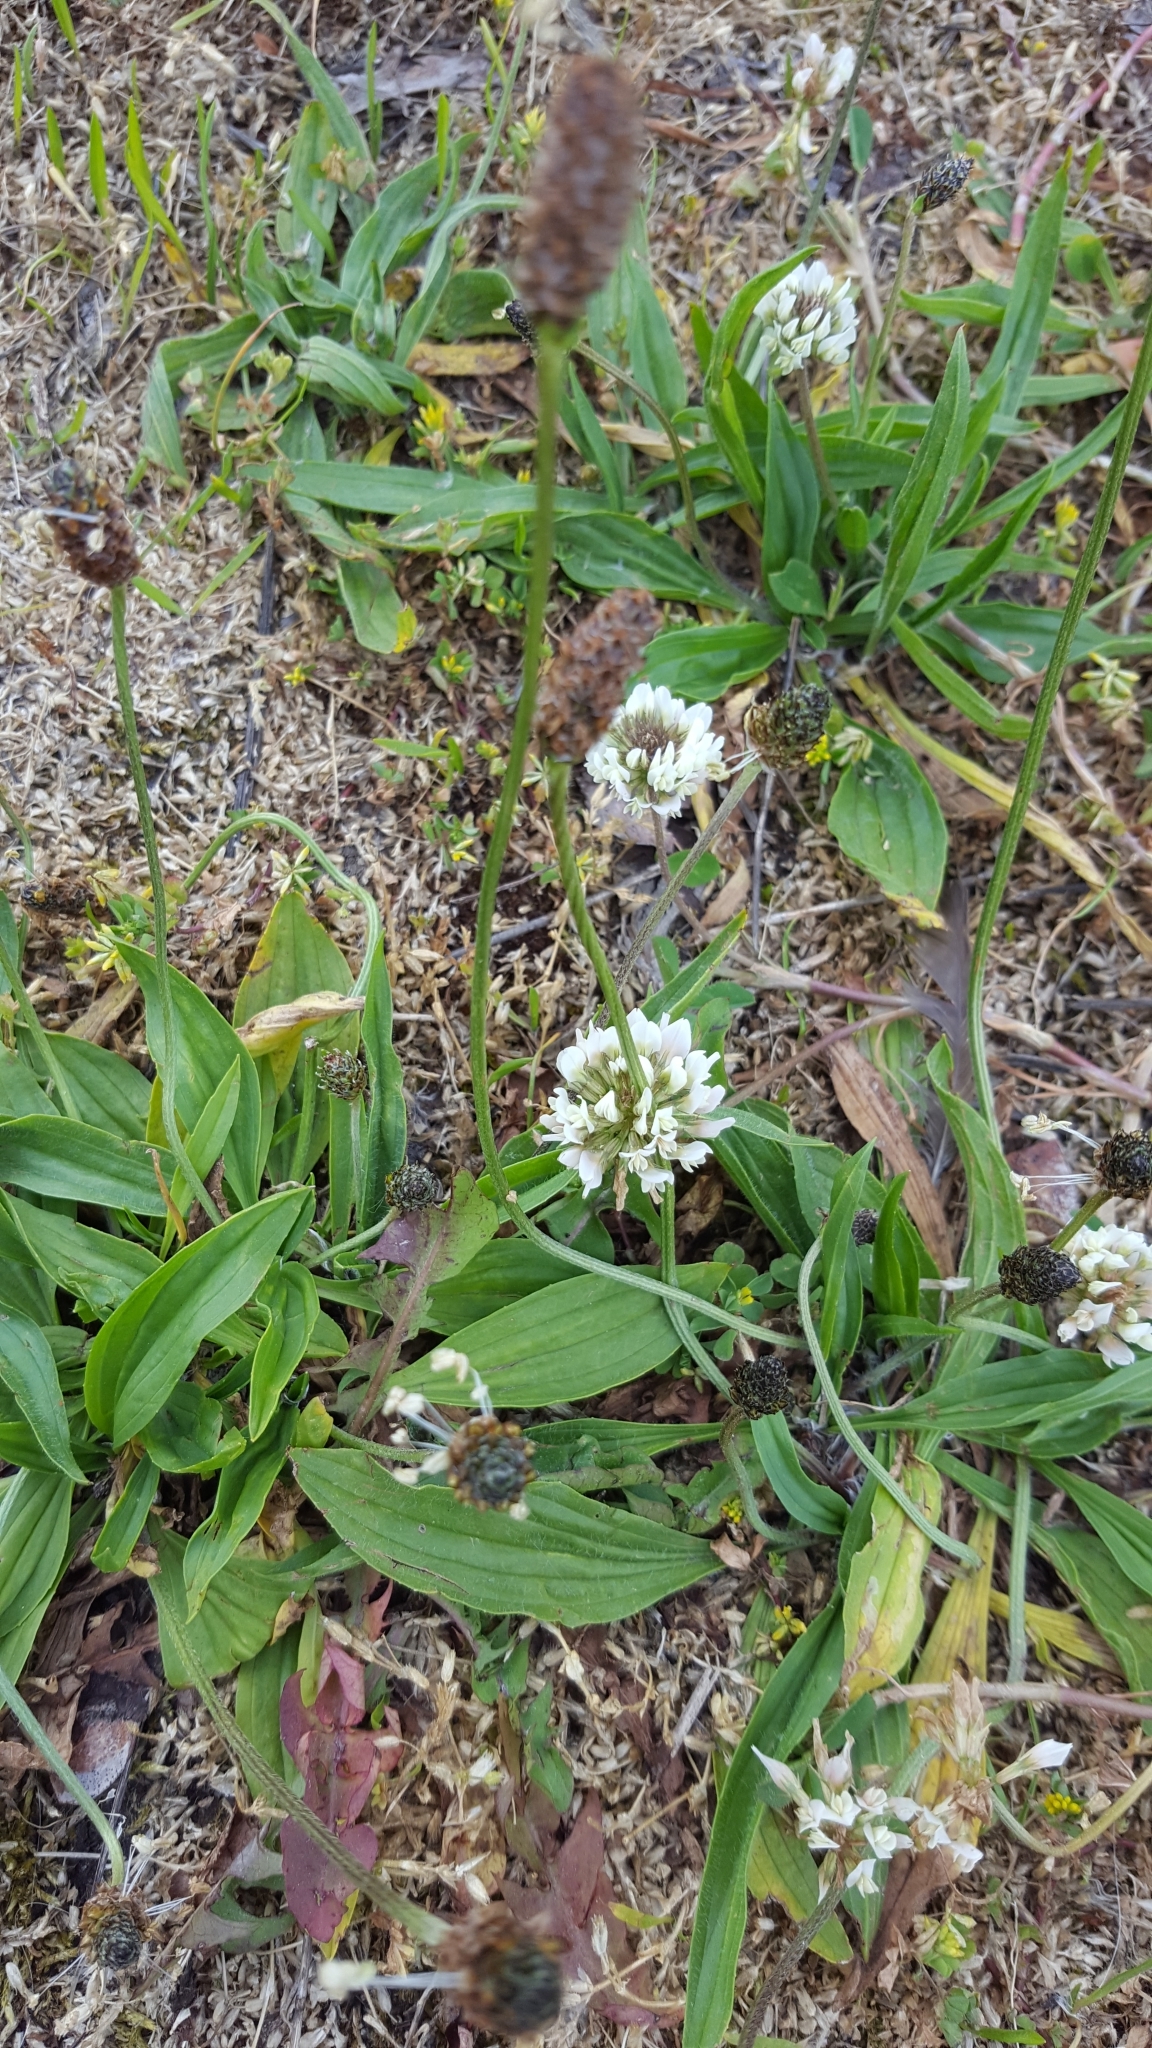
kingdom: Plantae
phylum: Tracheophyta
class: Magnoliopsida
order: Lamiales
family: Plantaginaceae
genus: Plantago
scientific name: Plantago lanceolata
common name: Ribwort plantain
